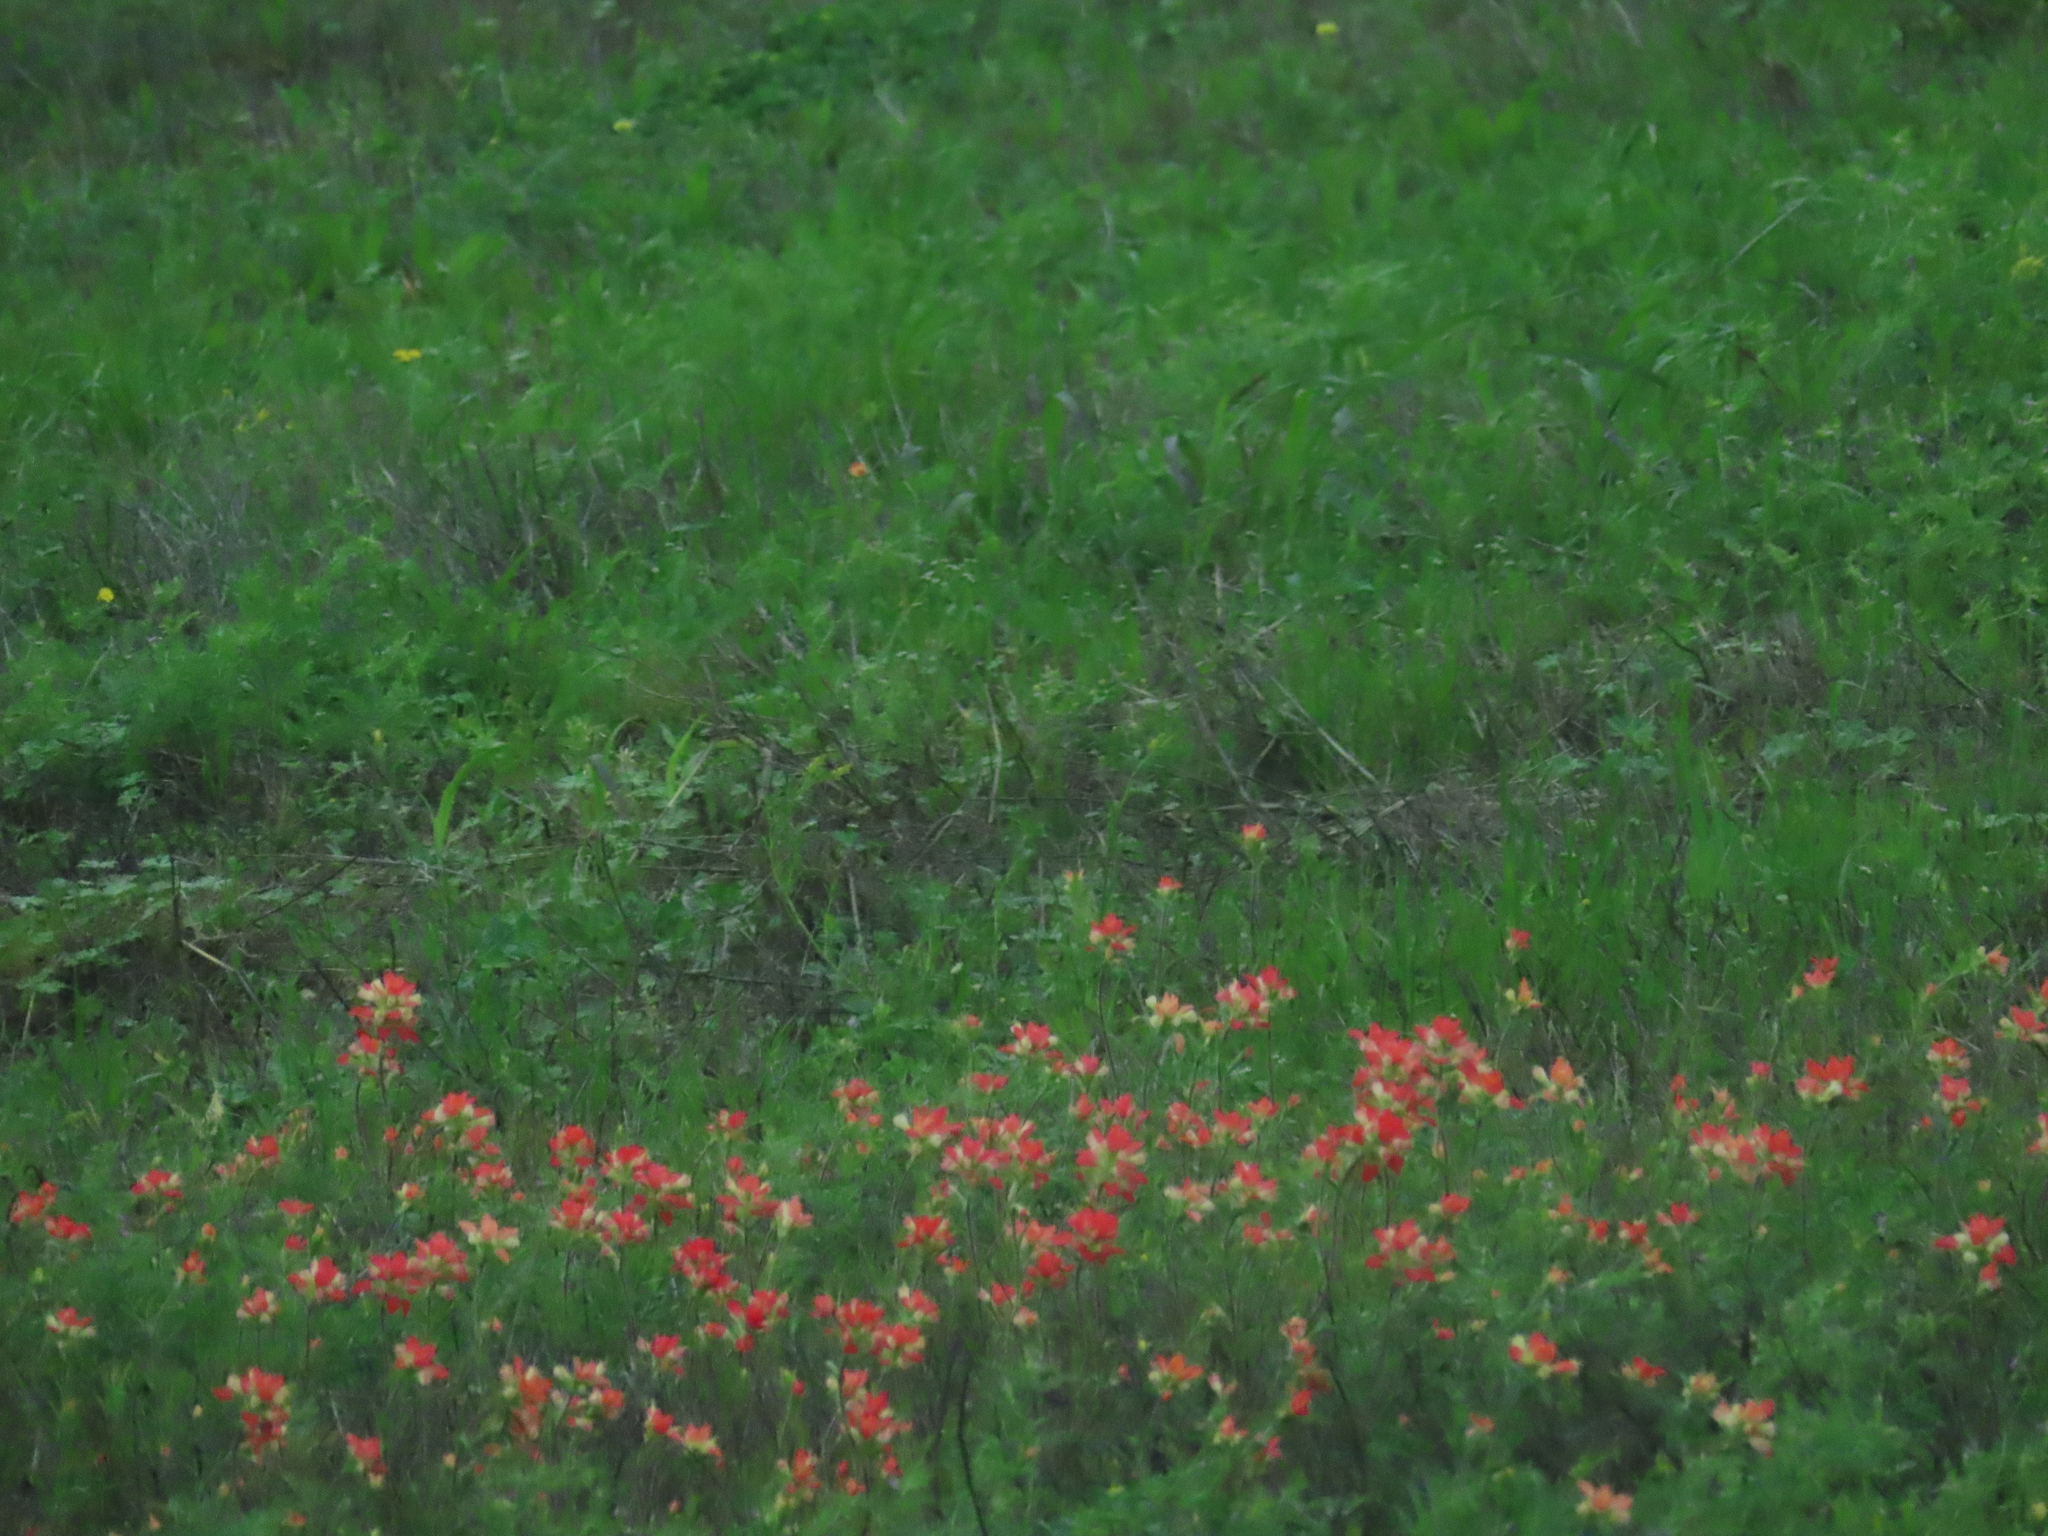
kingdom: Plantae
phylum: Tracheophyta
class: Magnoliopsida
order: Lamiales
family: Orobanchaceae
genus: Castilleja
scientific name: Castilleja indivisa
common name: Texas paintbrush
